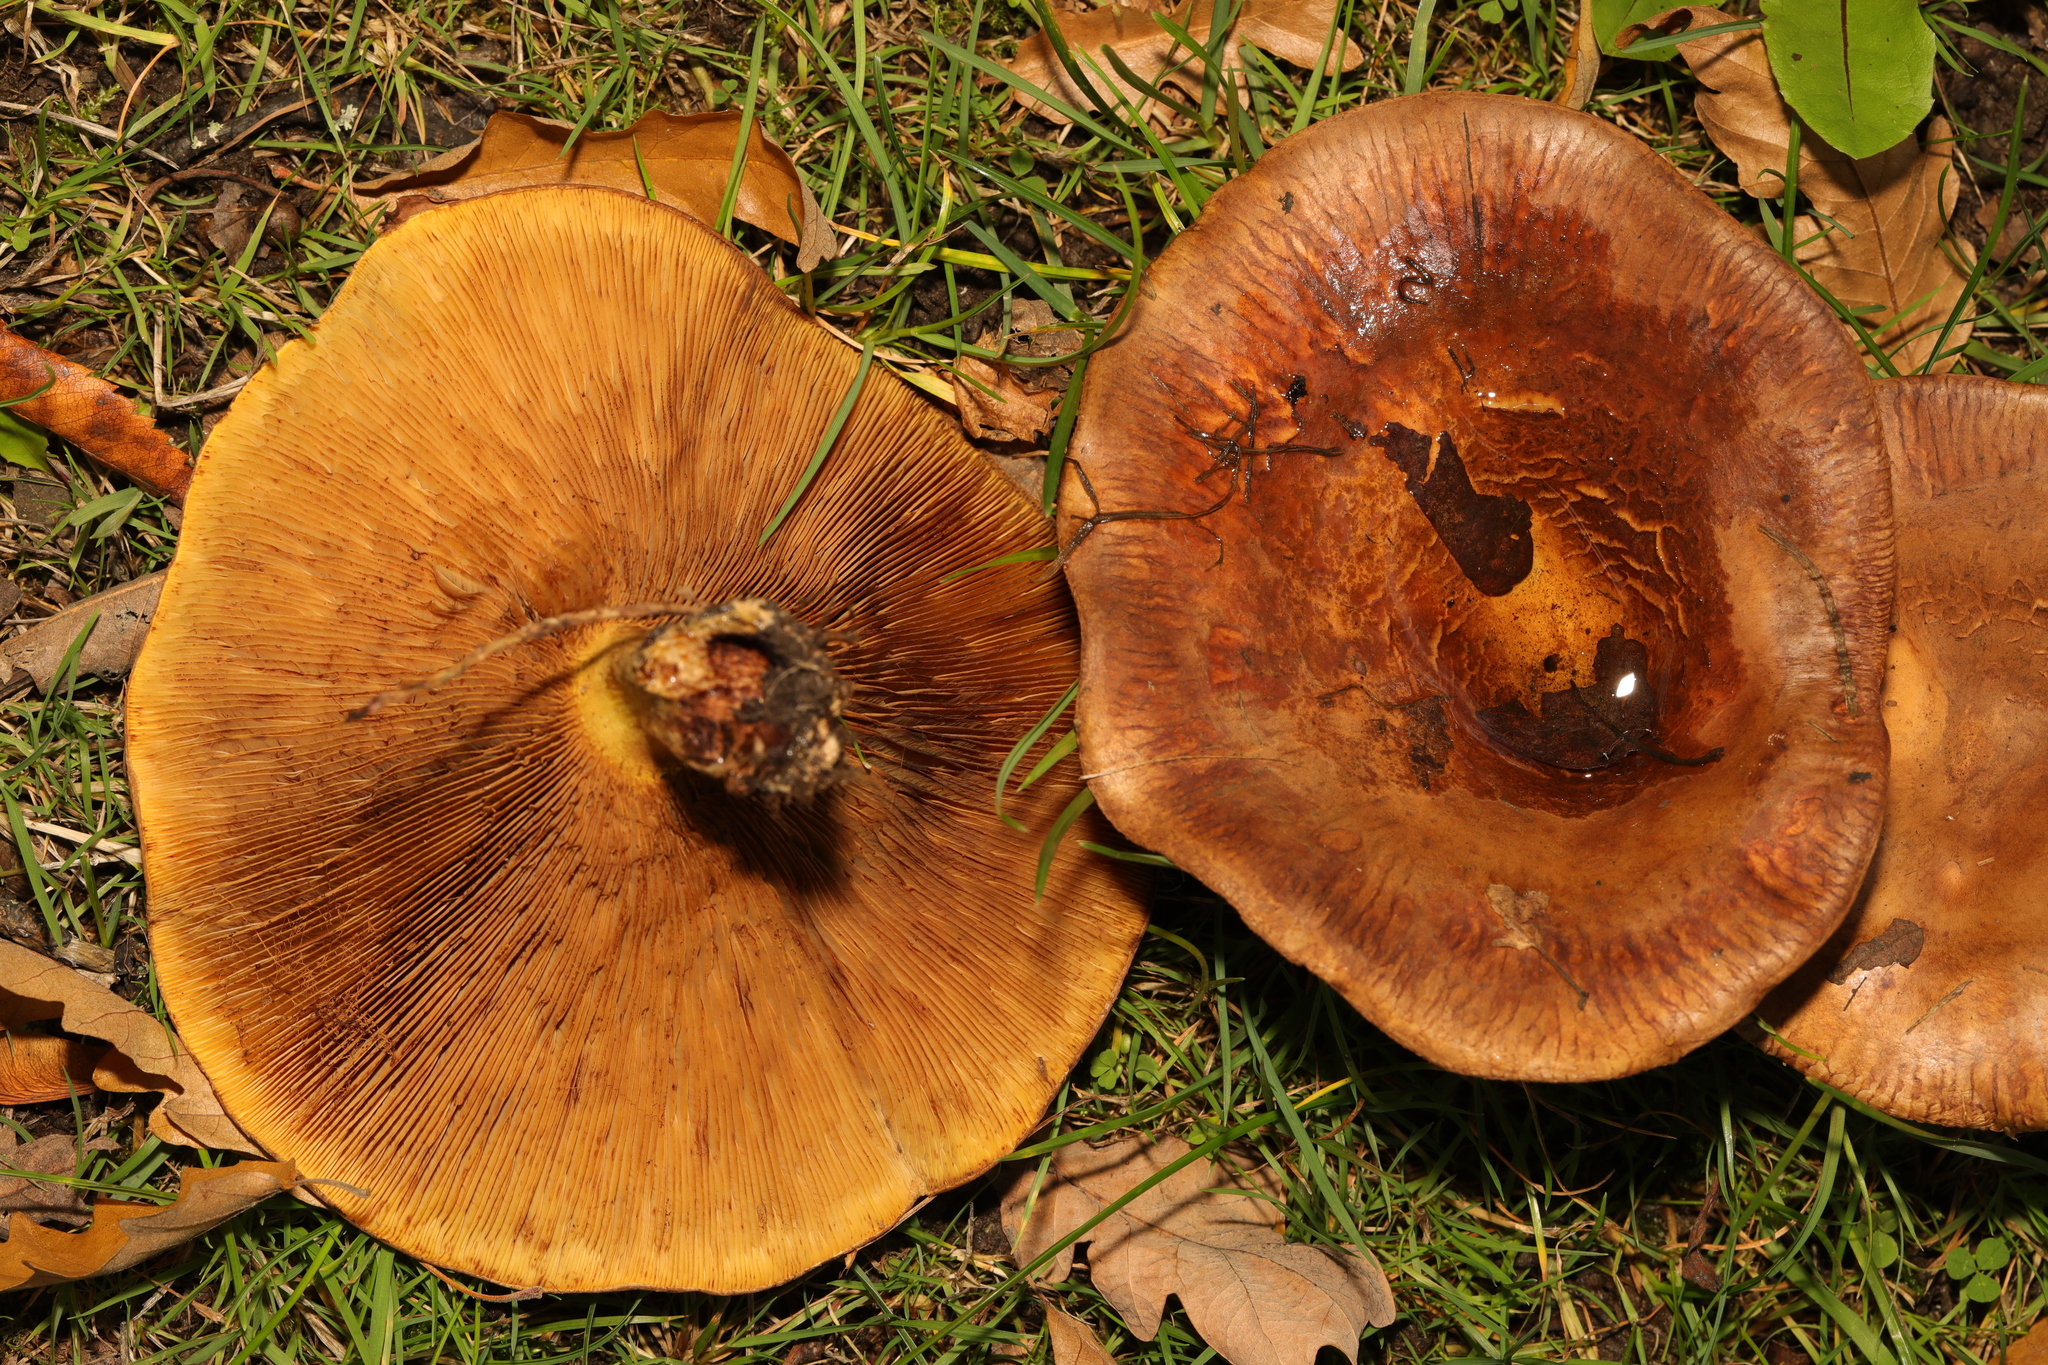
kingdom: Fungi
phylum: Basidiomycota
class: Agaricomycetes
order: Boletales
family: Paxillaceae
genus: Paxillus
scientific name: Paxillus
